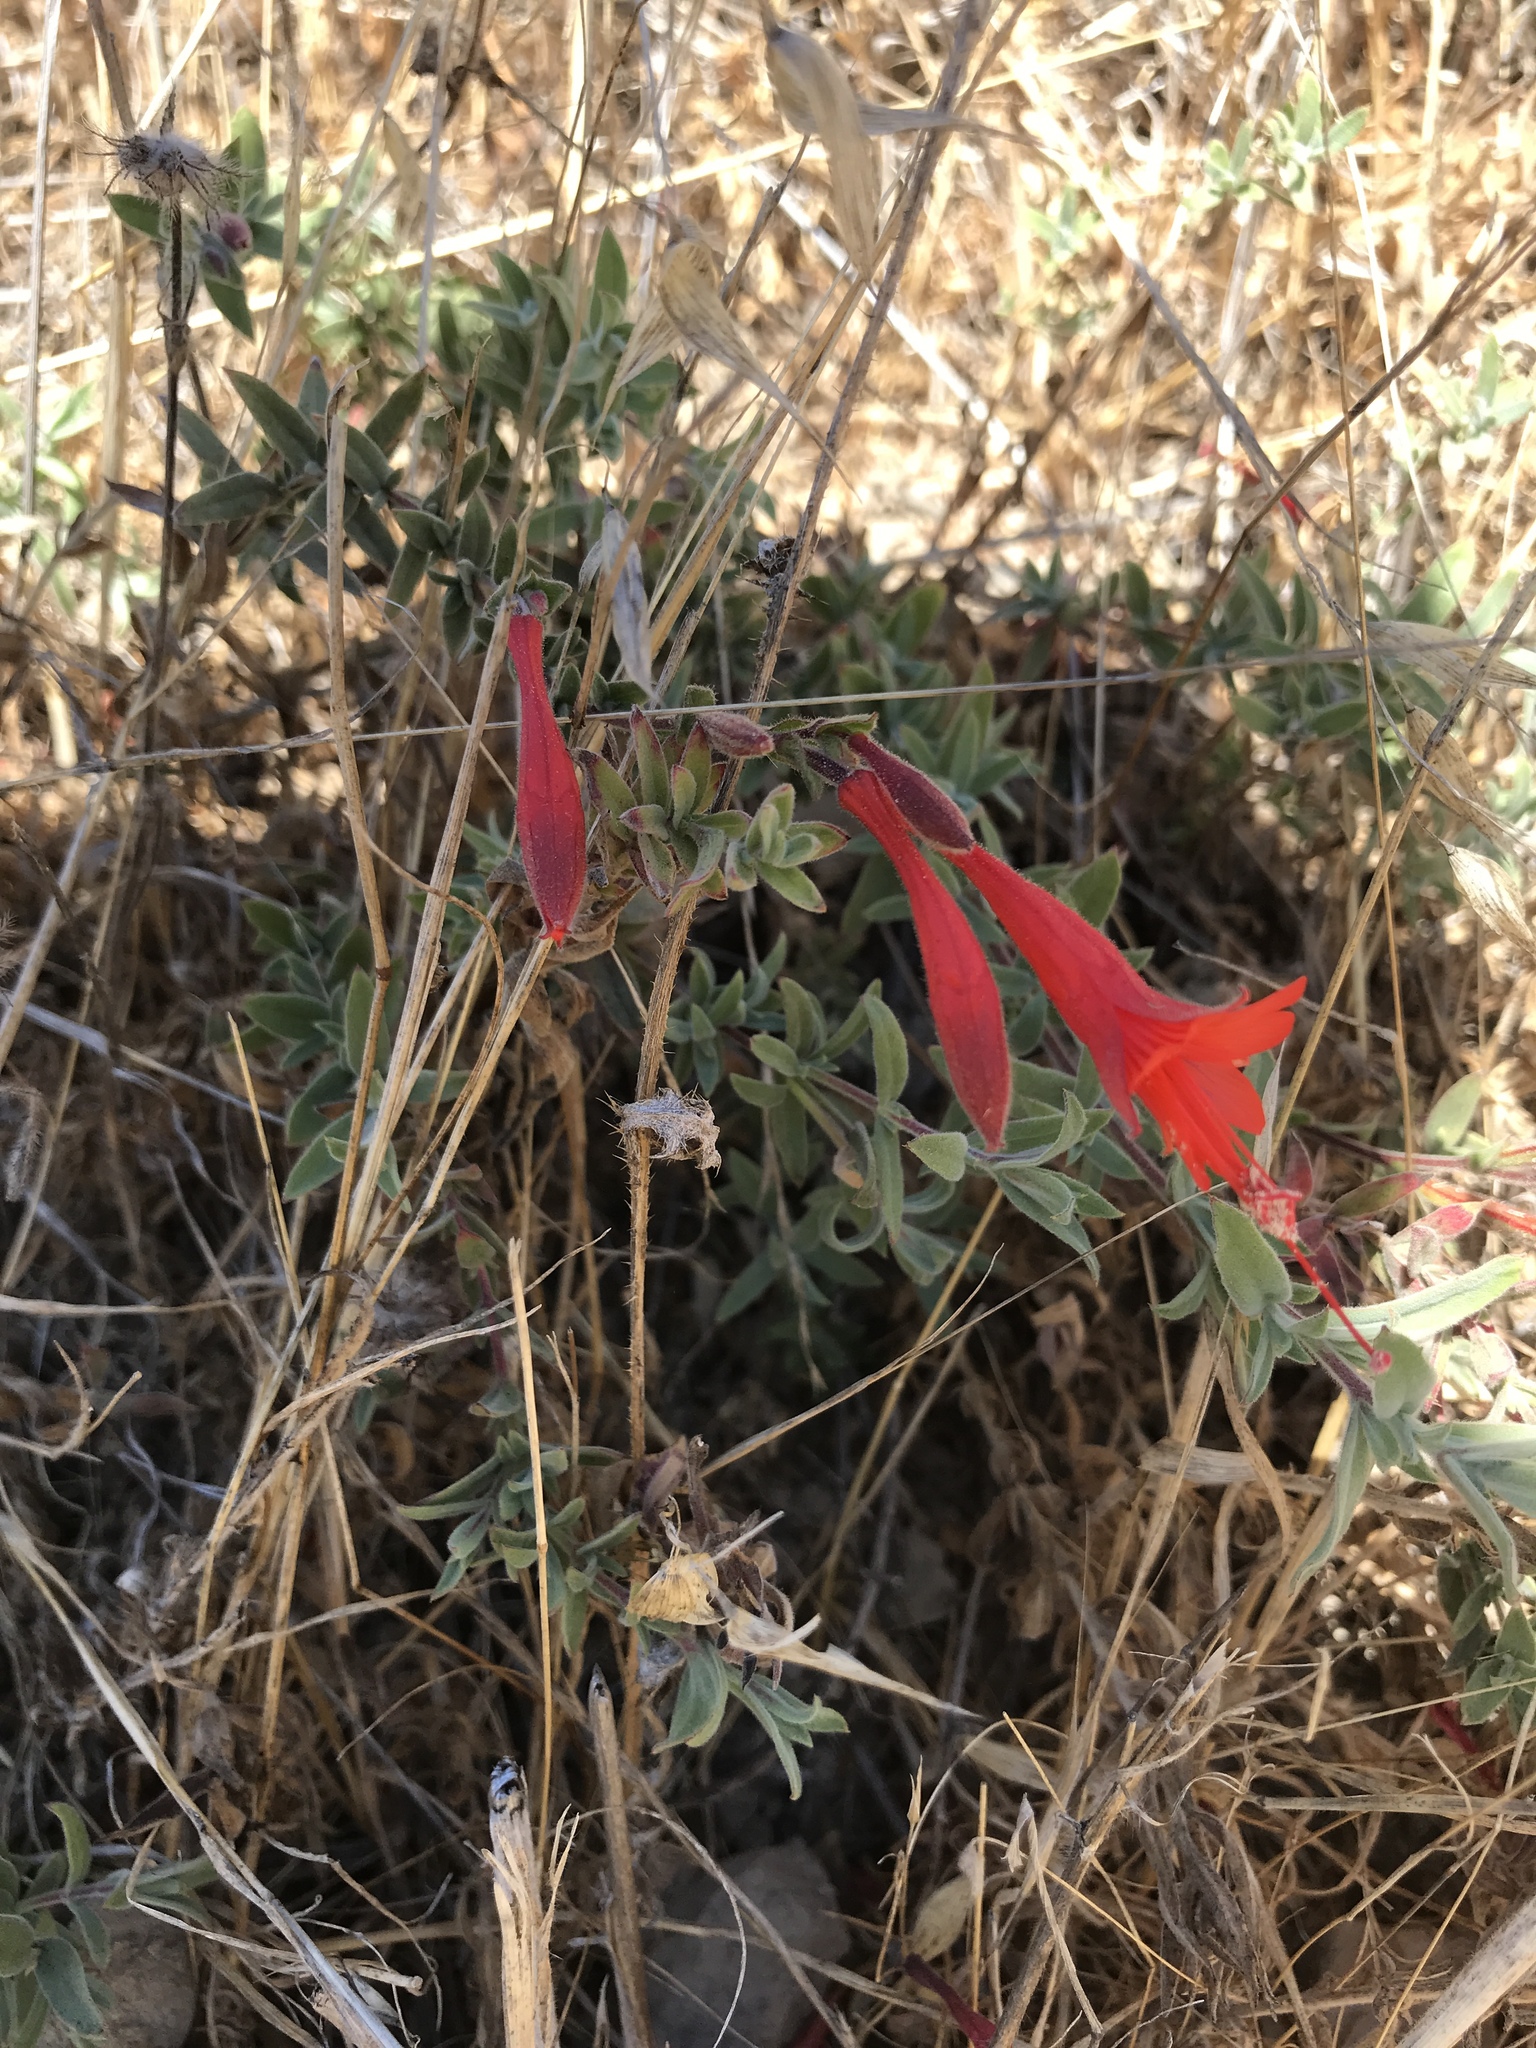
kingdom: Plantae
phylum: Tracheophyta
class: Magnoliopsida
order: Myrtales
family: Onagraceae
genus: Epilobium
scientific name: Epilobium canum
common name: California-fuchsia
